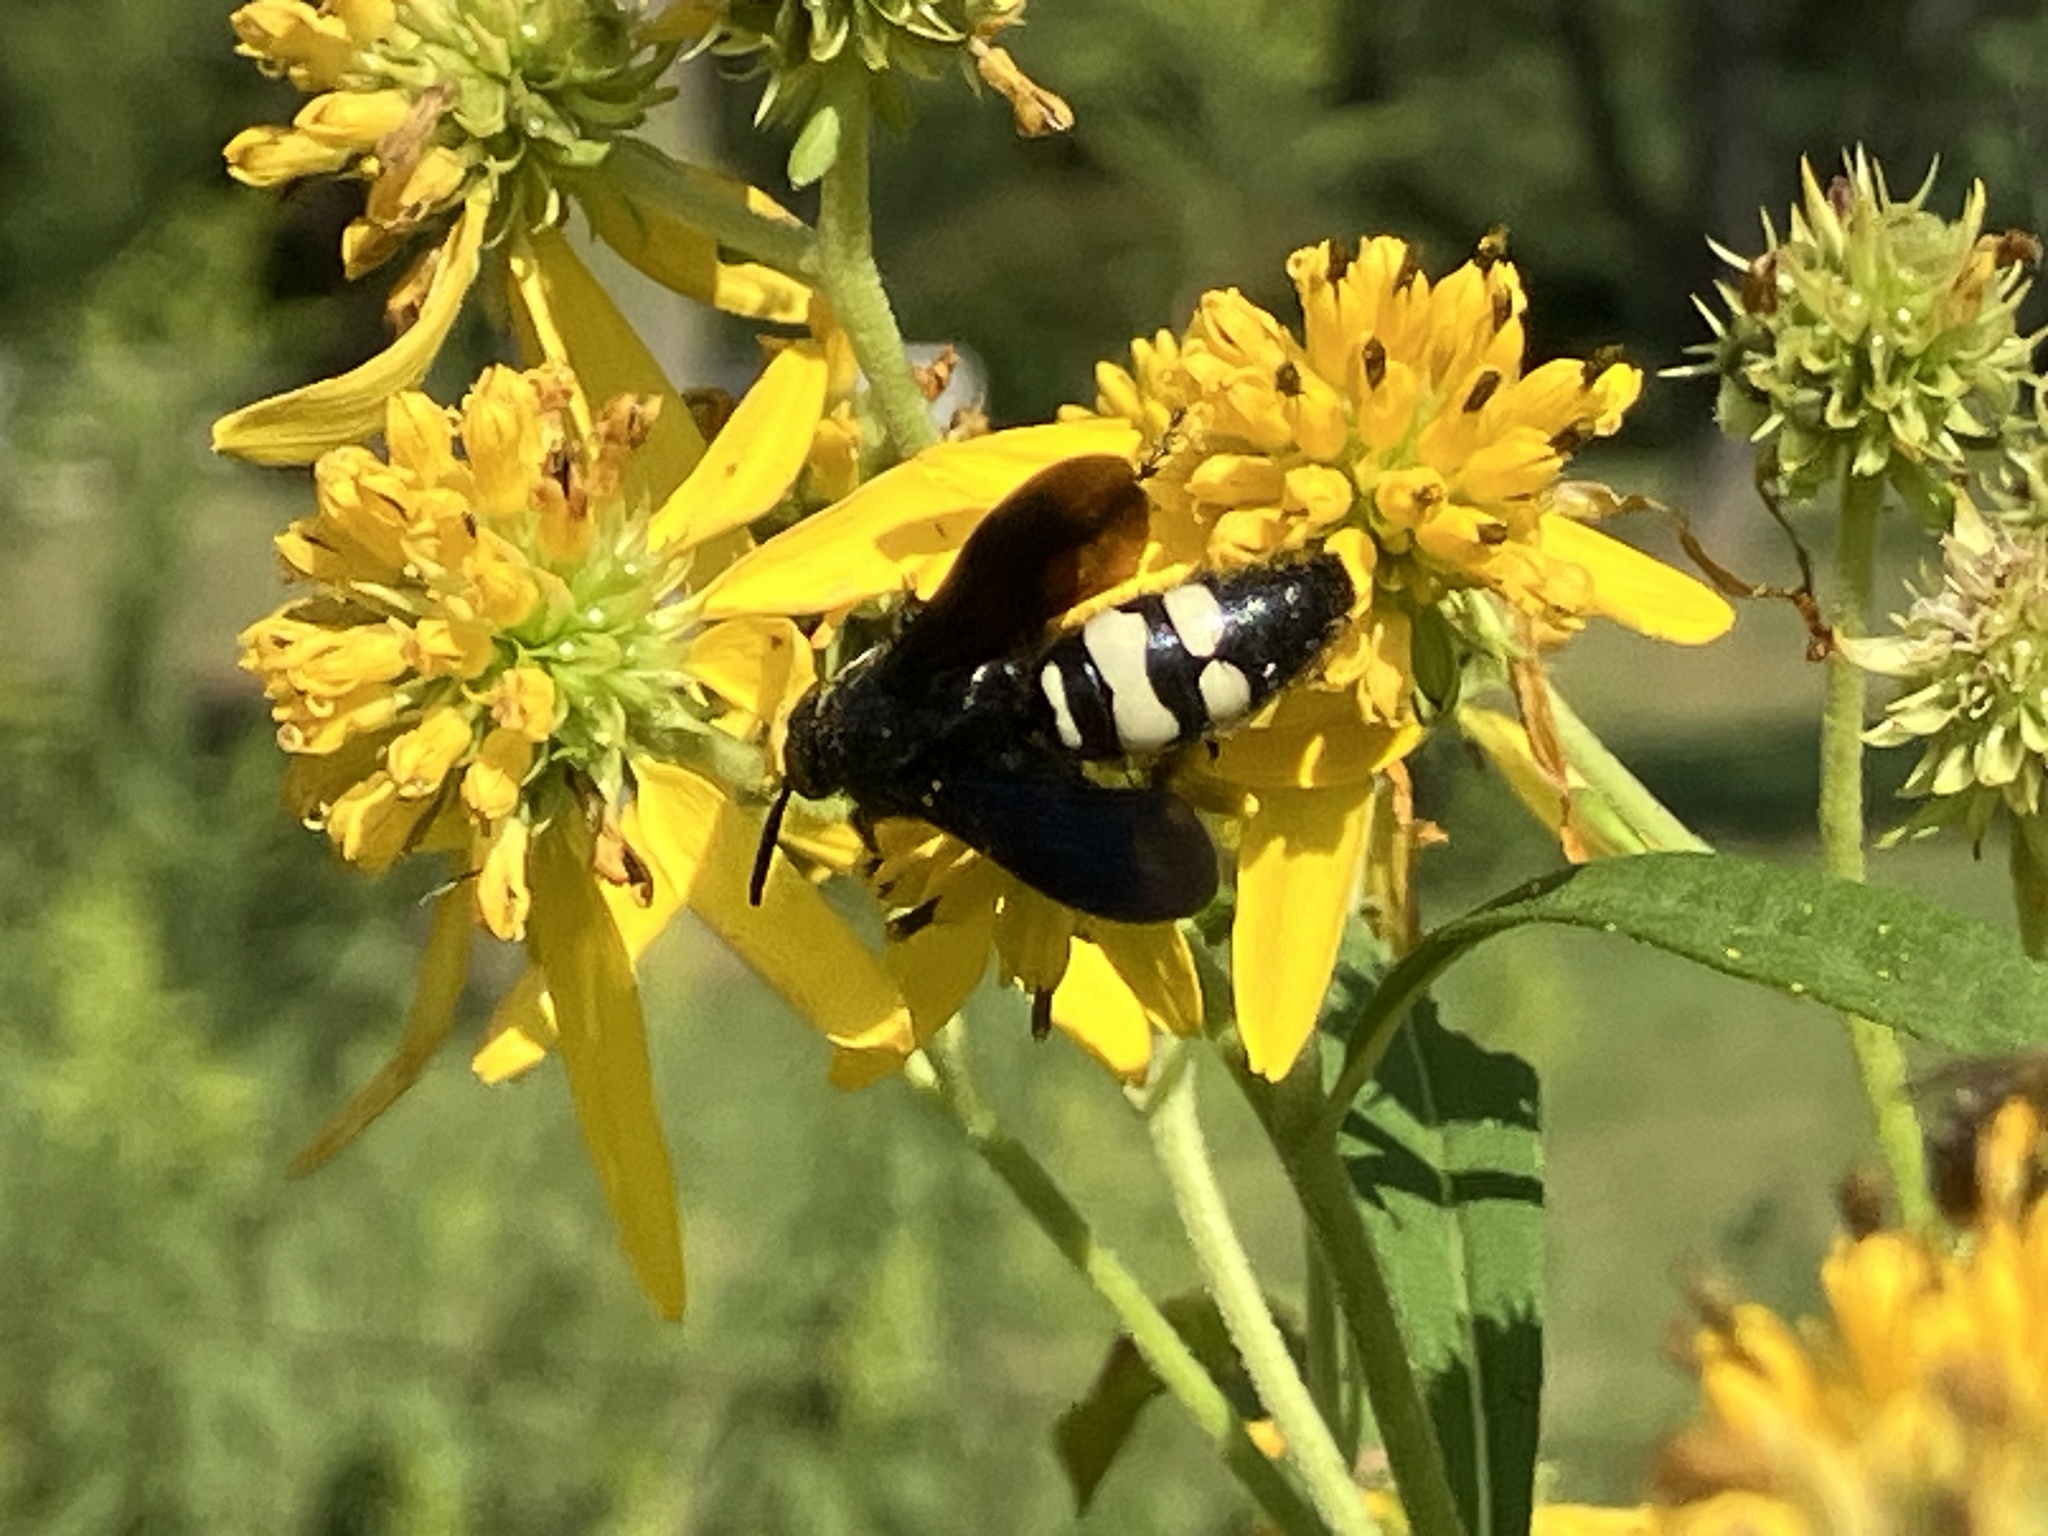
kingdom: Animalia
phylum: Arthropoda
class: Insecta
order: Hymenoptera
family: Scoliidae
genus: Scolia
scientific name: Scolia bicincta
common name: Double-banded scoliid wasp
